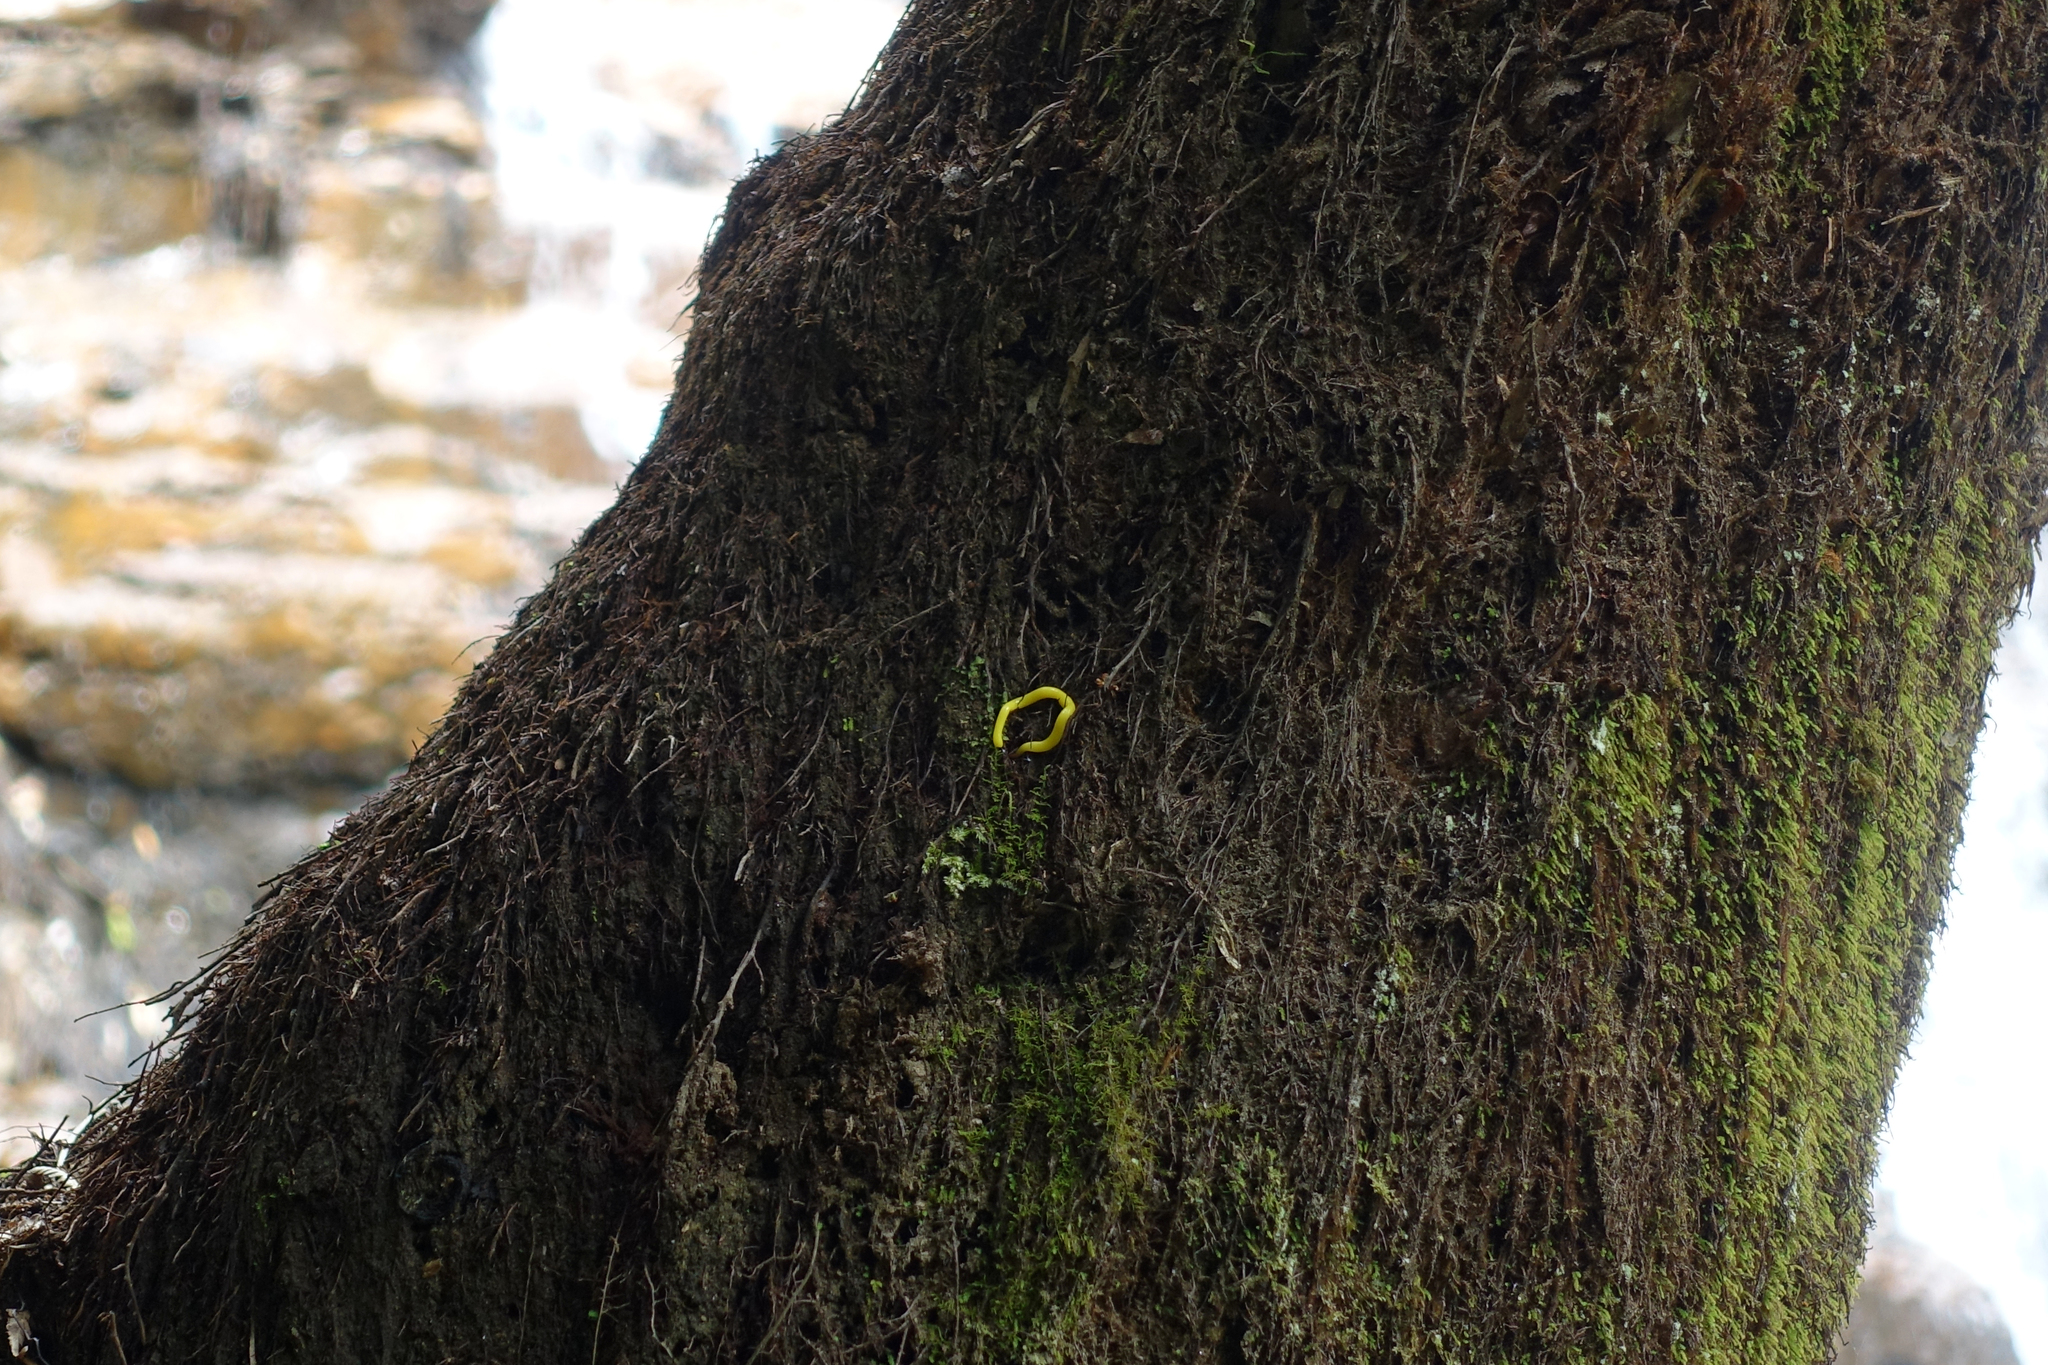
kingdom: Animalia
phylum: Platyhelminthes
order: Tricladida
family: Geoplanidae
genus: Fletchamia
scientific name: Fletchamia sugdeni
